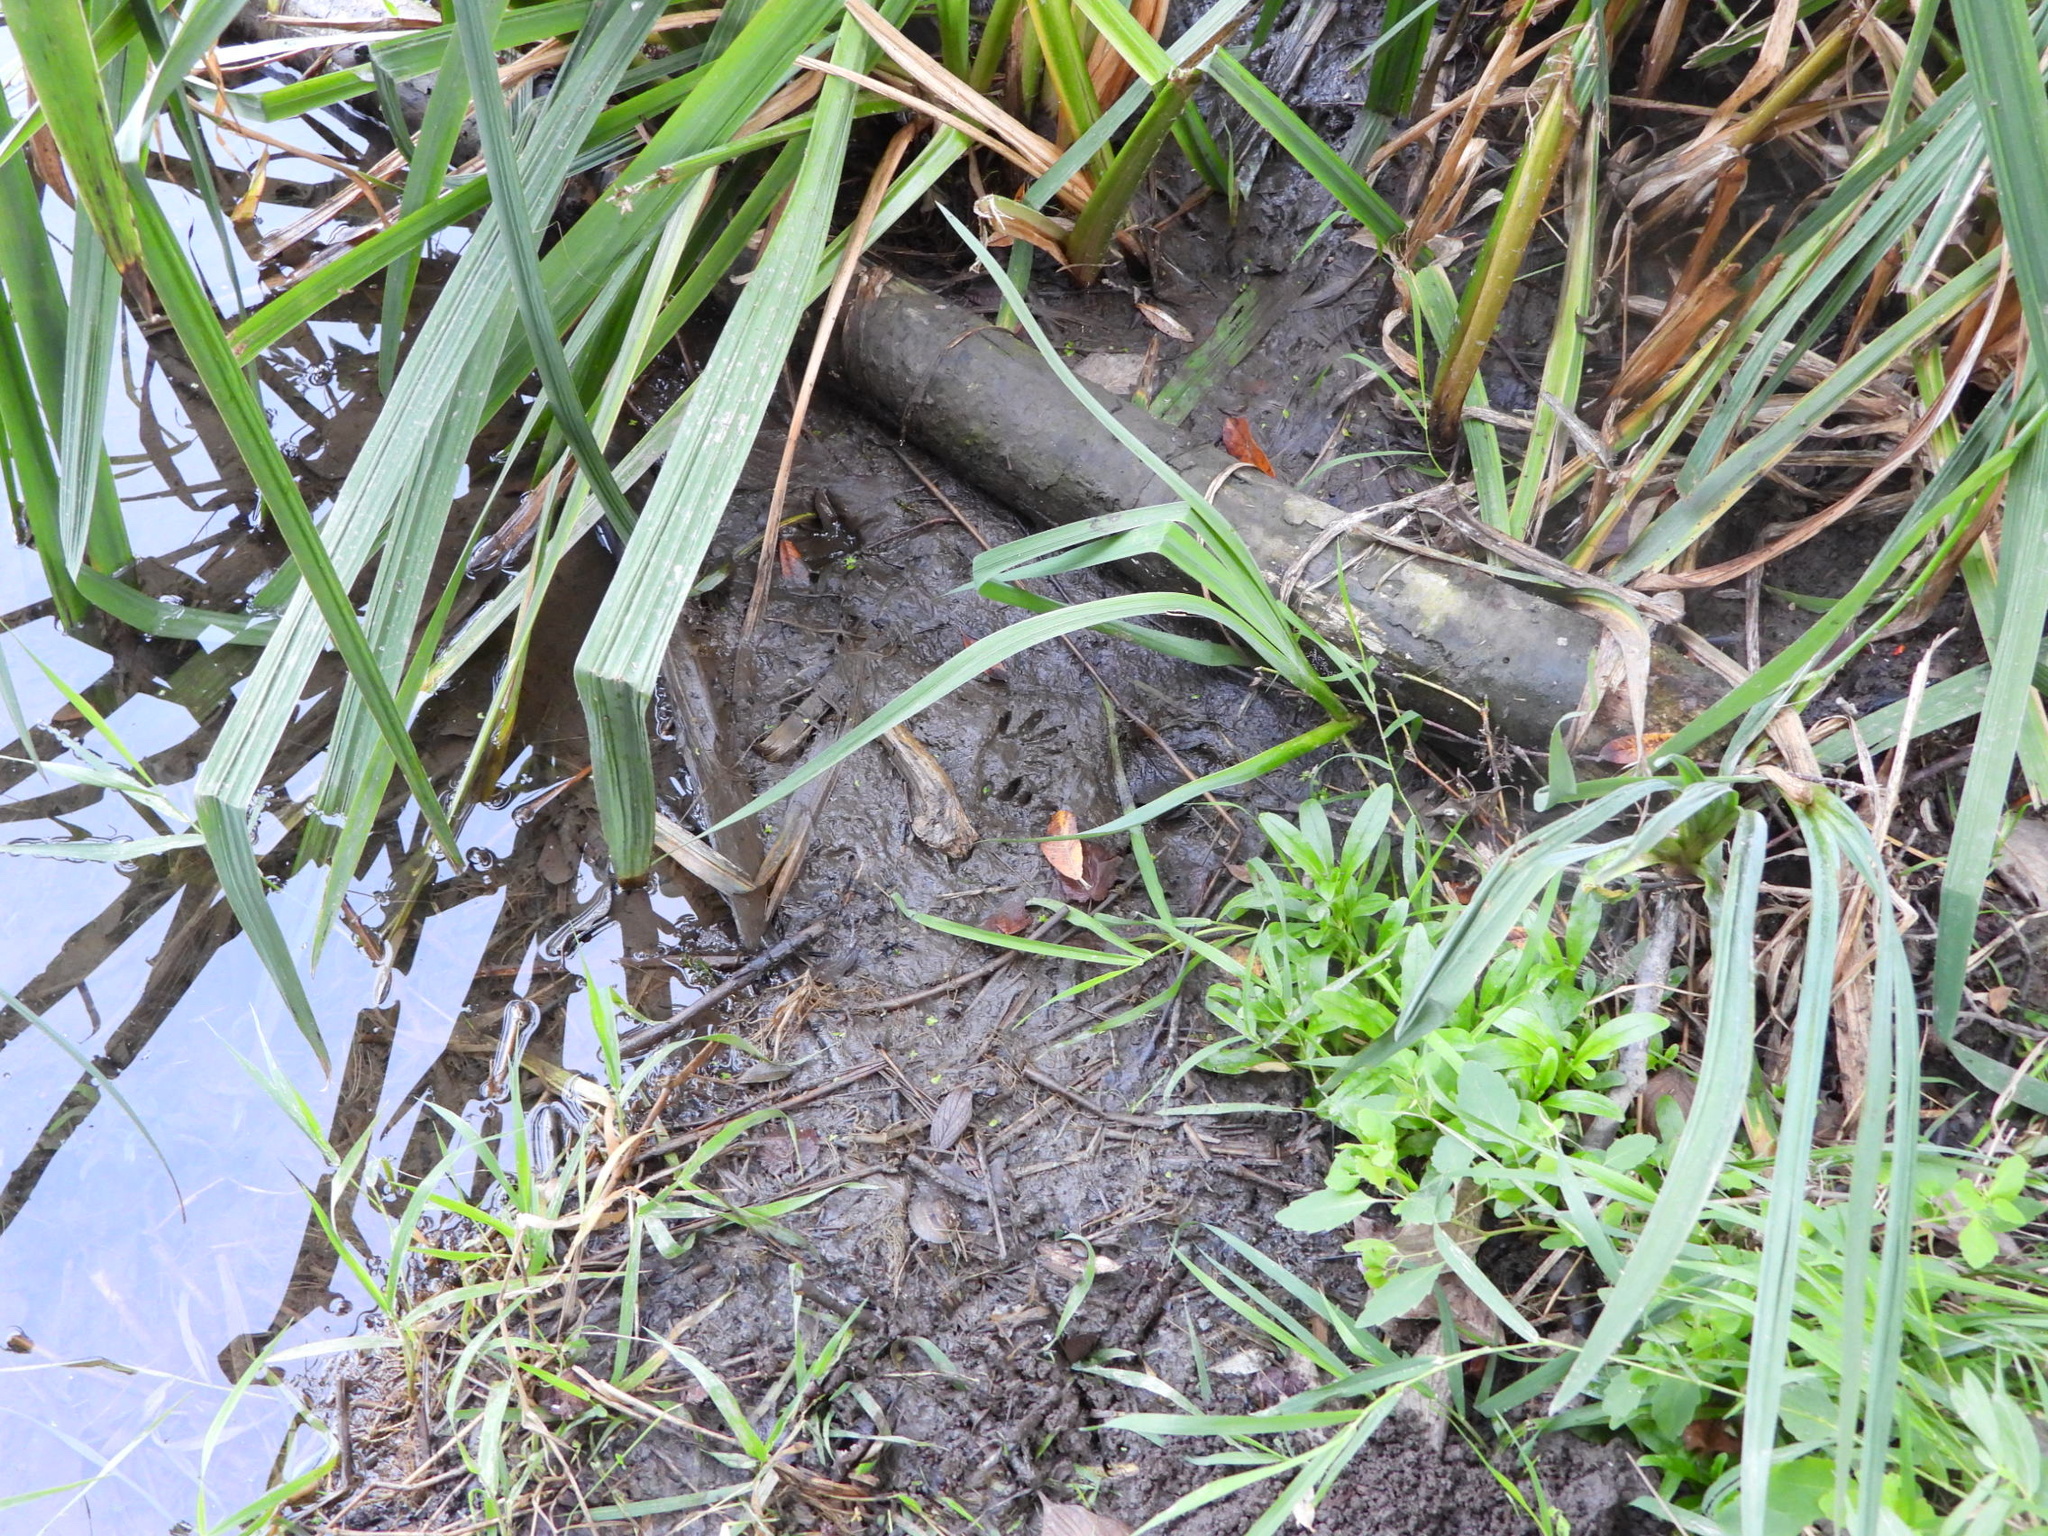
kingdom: Animalia
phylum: Chordata
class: Mammalia
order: Carnivora
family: Procyonidae
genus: Procyon
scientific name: Procyon lotor
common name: Raccoon
